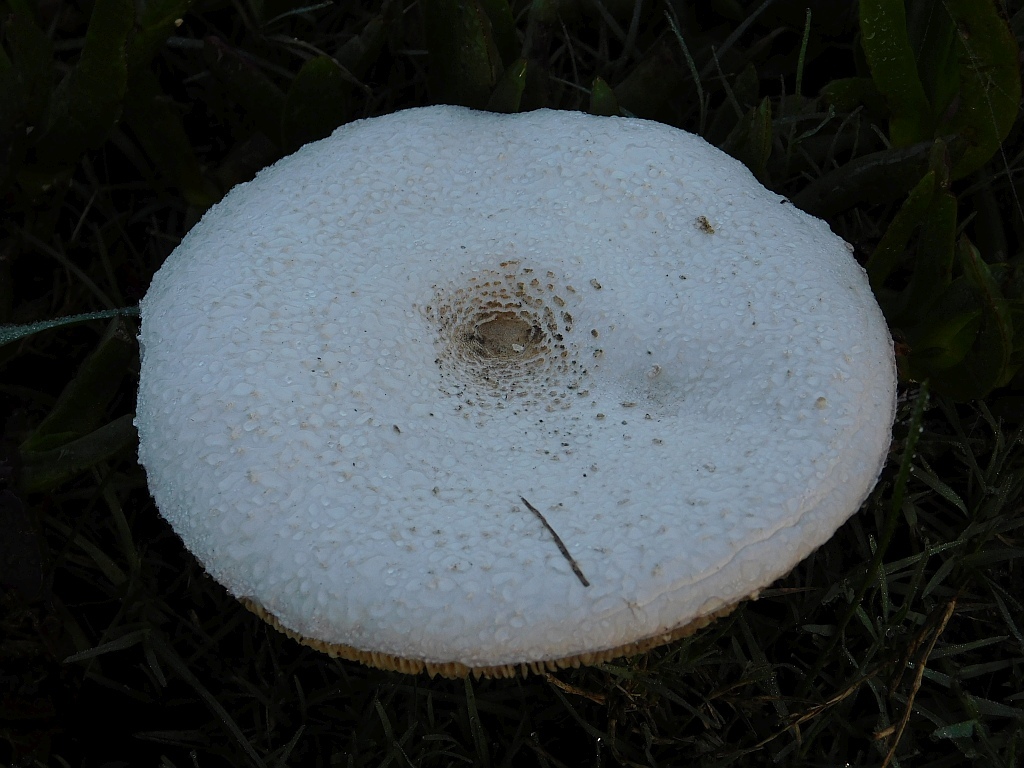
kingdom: Fungi
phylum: Basidiomycota
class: Agaricomycetes
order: Agaricales
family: Agaricaceae
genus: Macrolepiota
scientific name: Macrolepiota zeyheri
